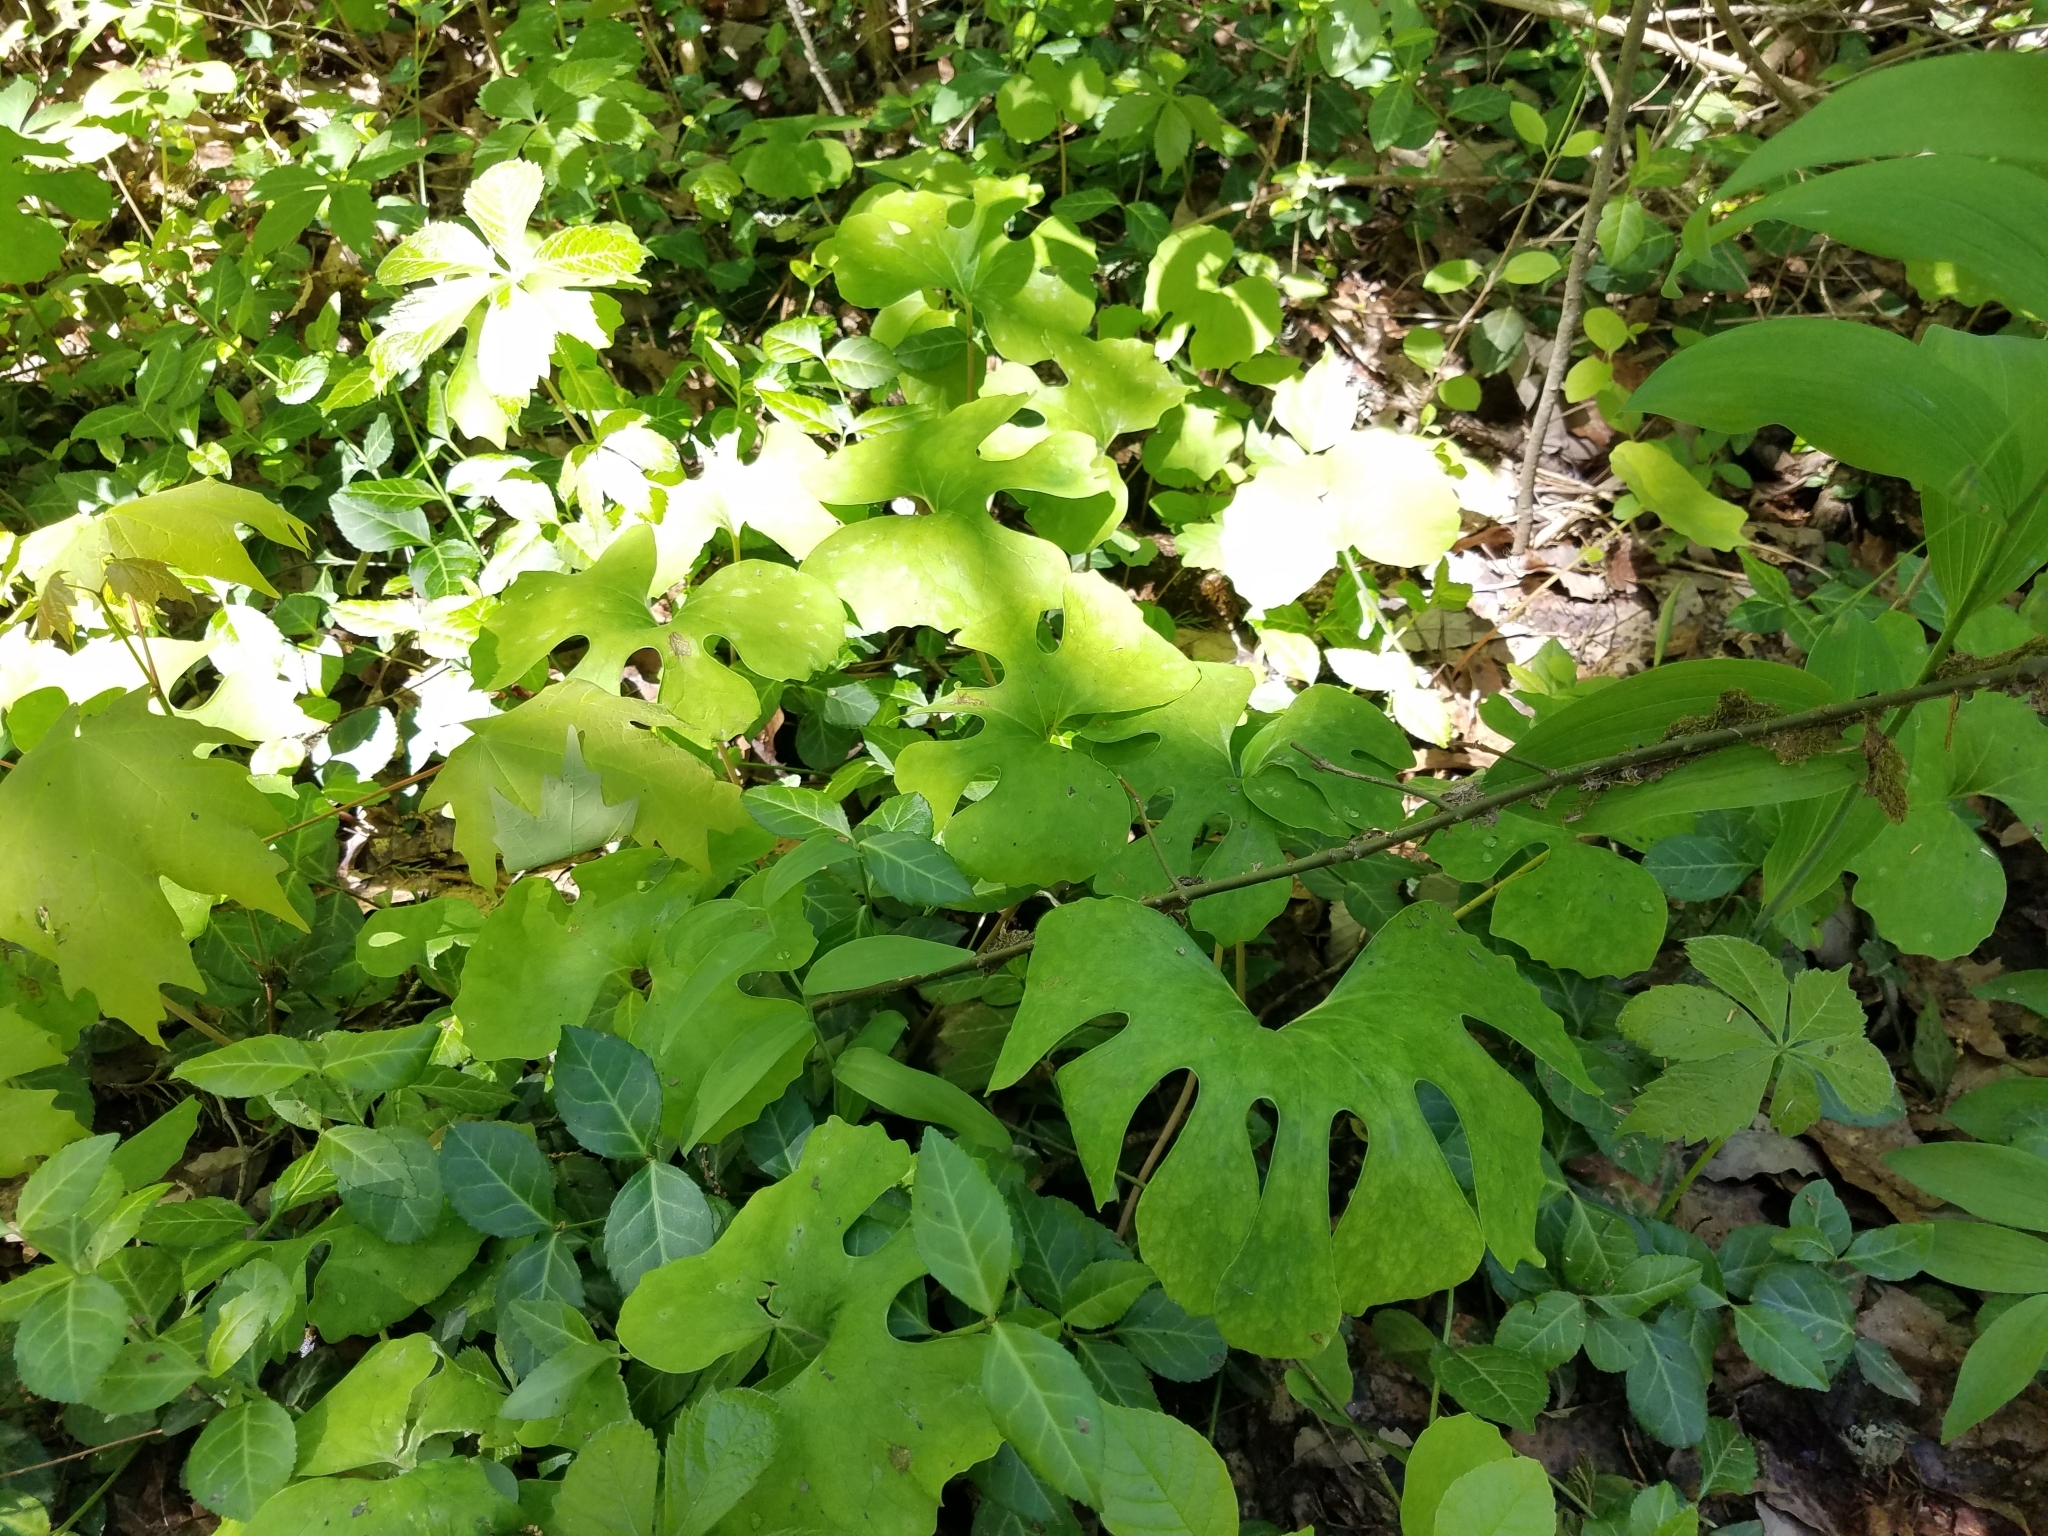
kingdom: Plantae
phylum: Tracheophyta
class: Magnoliopsida
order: Ranunculales
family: Papaveraceae
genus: Sanguinaria
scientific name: Sanguinaria canadensis
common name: Bloodroot
